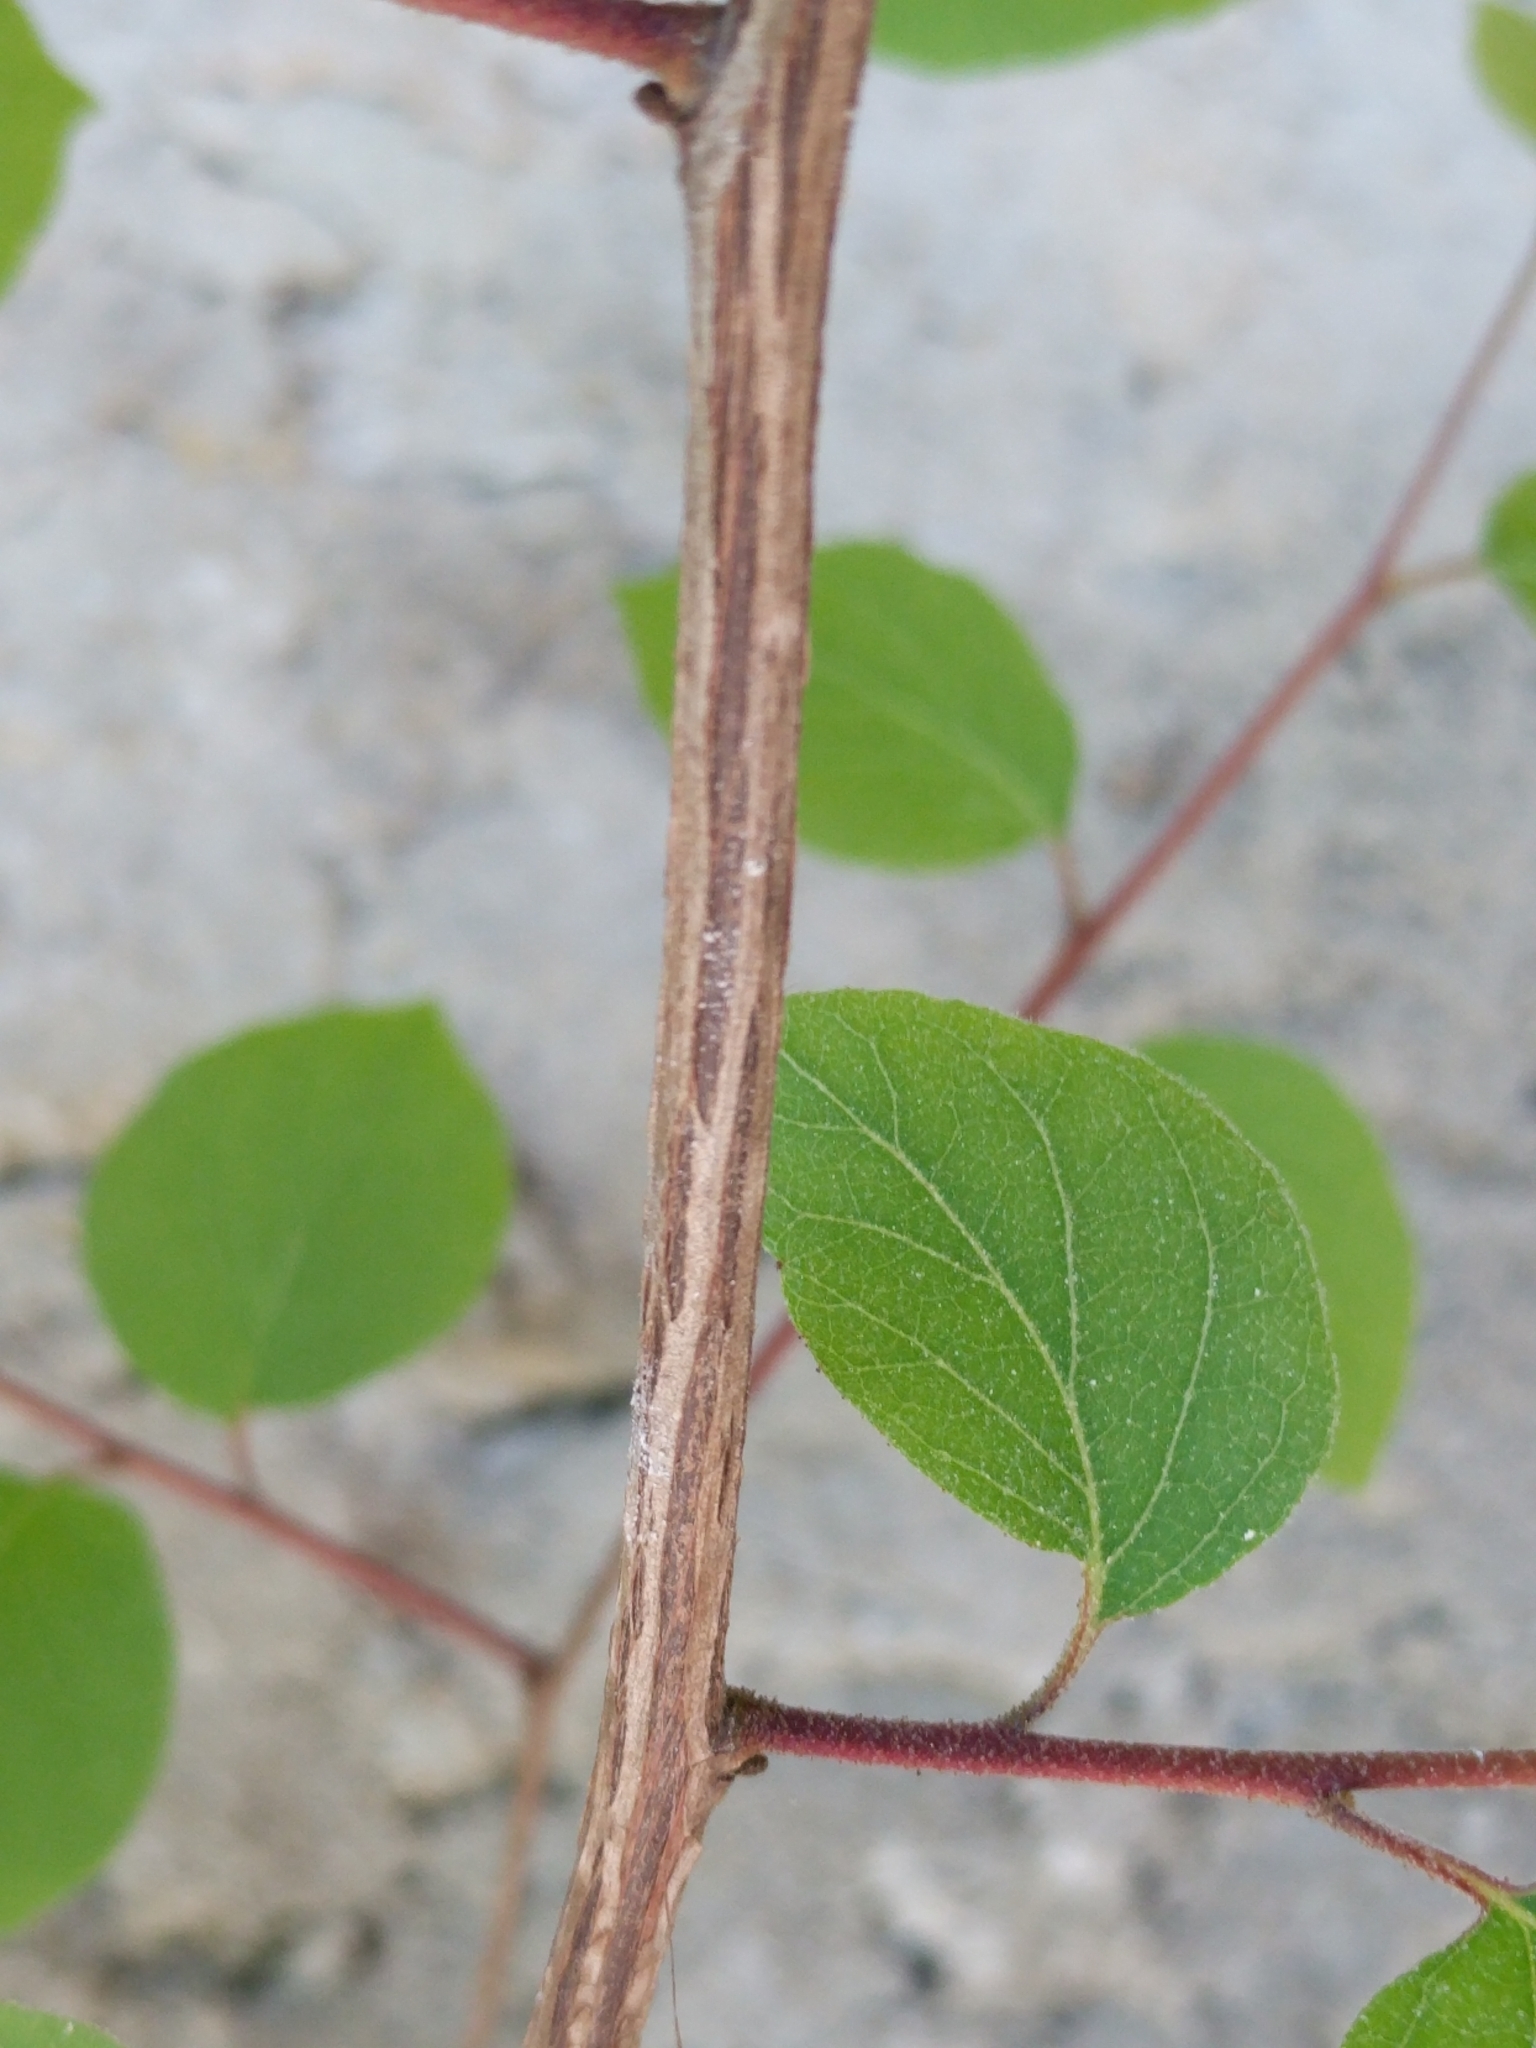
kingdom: Plantae
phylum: Tracheophyta
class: Magnoliopsida
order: Ericales
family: Styracaceae
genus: Styrax
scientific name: Styrax platanifolius
